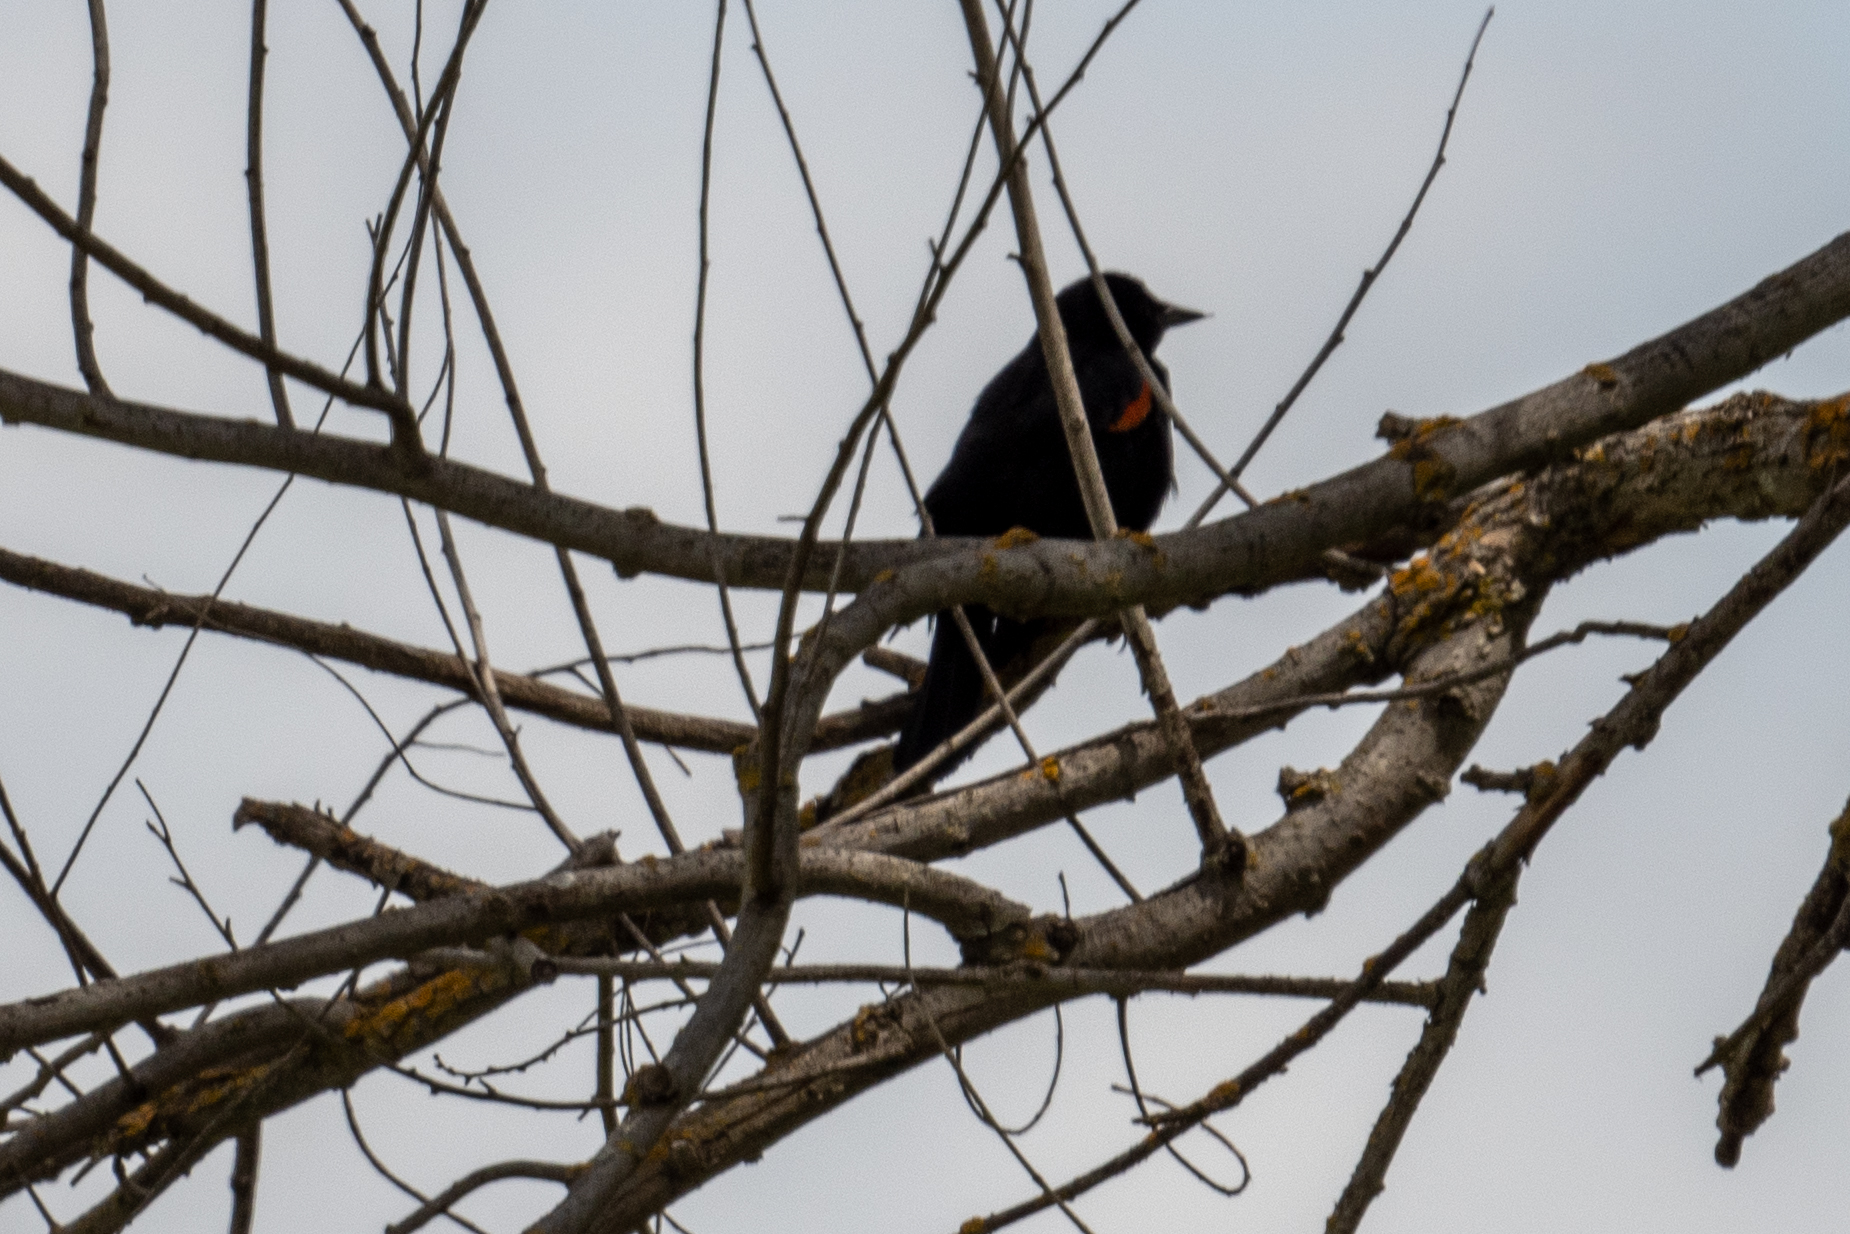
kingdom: Animalia
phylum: Chordata
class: Aves
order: Passeriformes
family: Icteridae
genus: Agelaius
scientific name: Agelaius phoeniceus
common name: Red-winged blackbird
